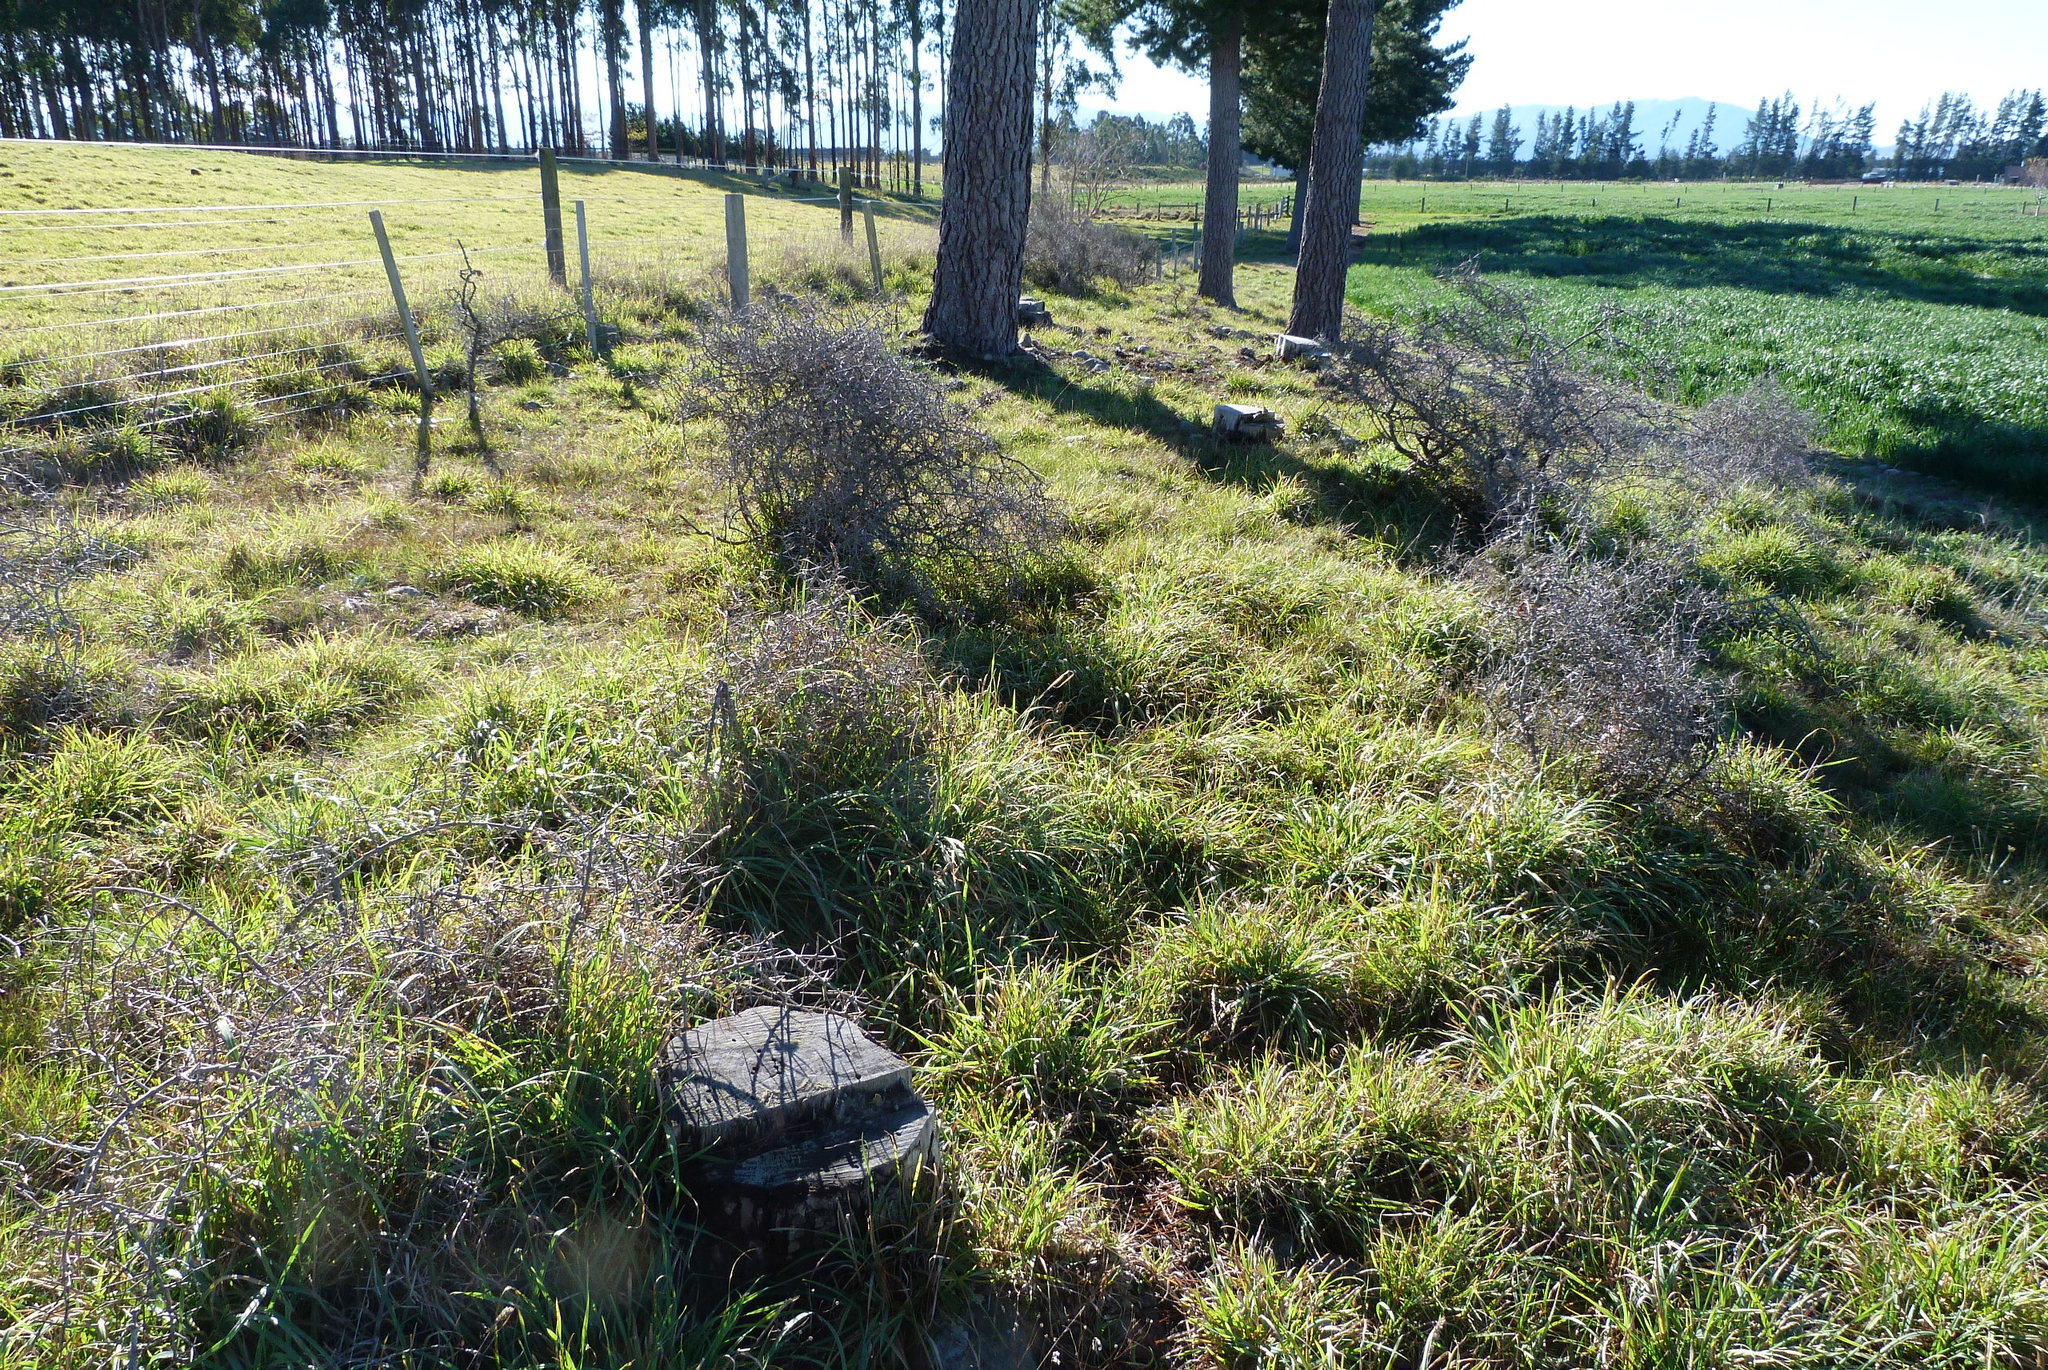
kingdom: Plantae
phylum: Tracheophyta
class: Magnoliopsida
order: Rosales
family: Rhamnaceae
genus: Discaria
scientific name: Discaria toumatou
